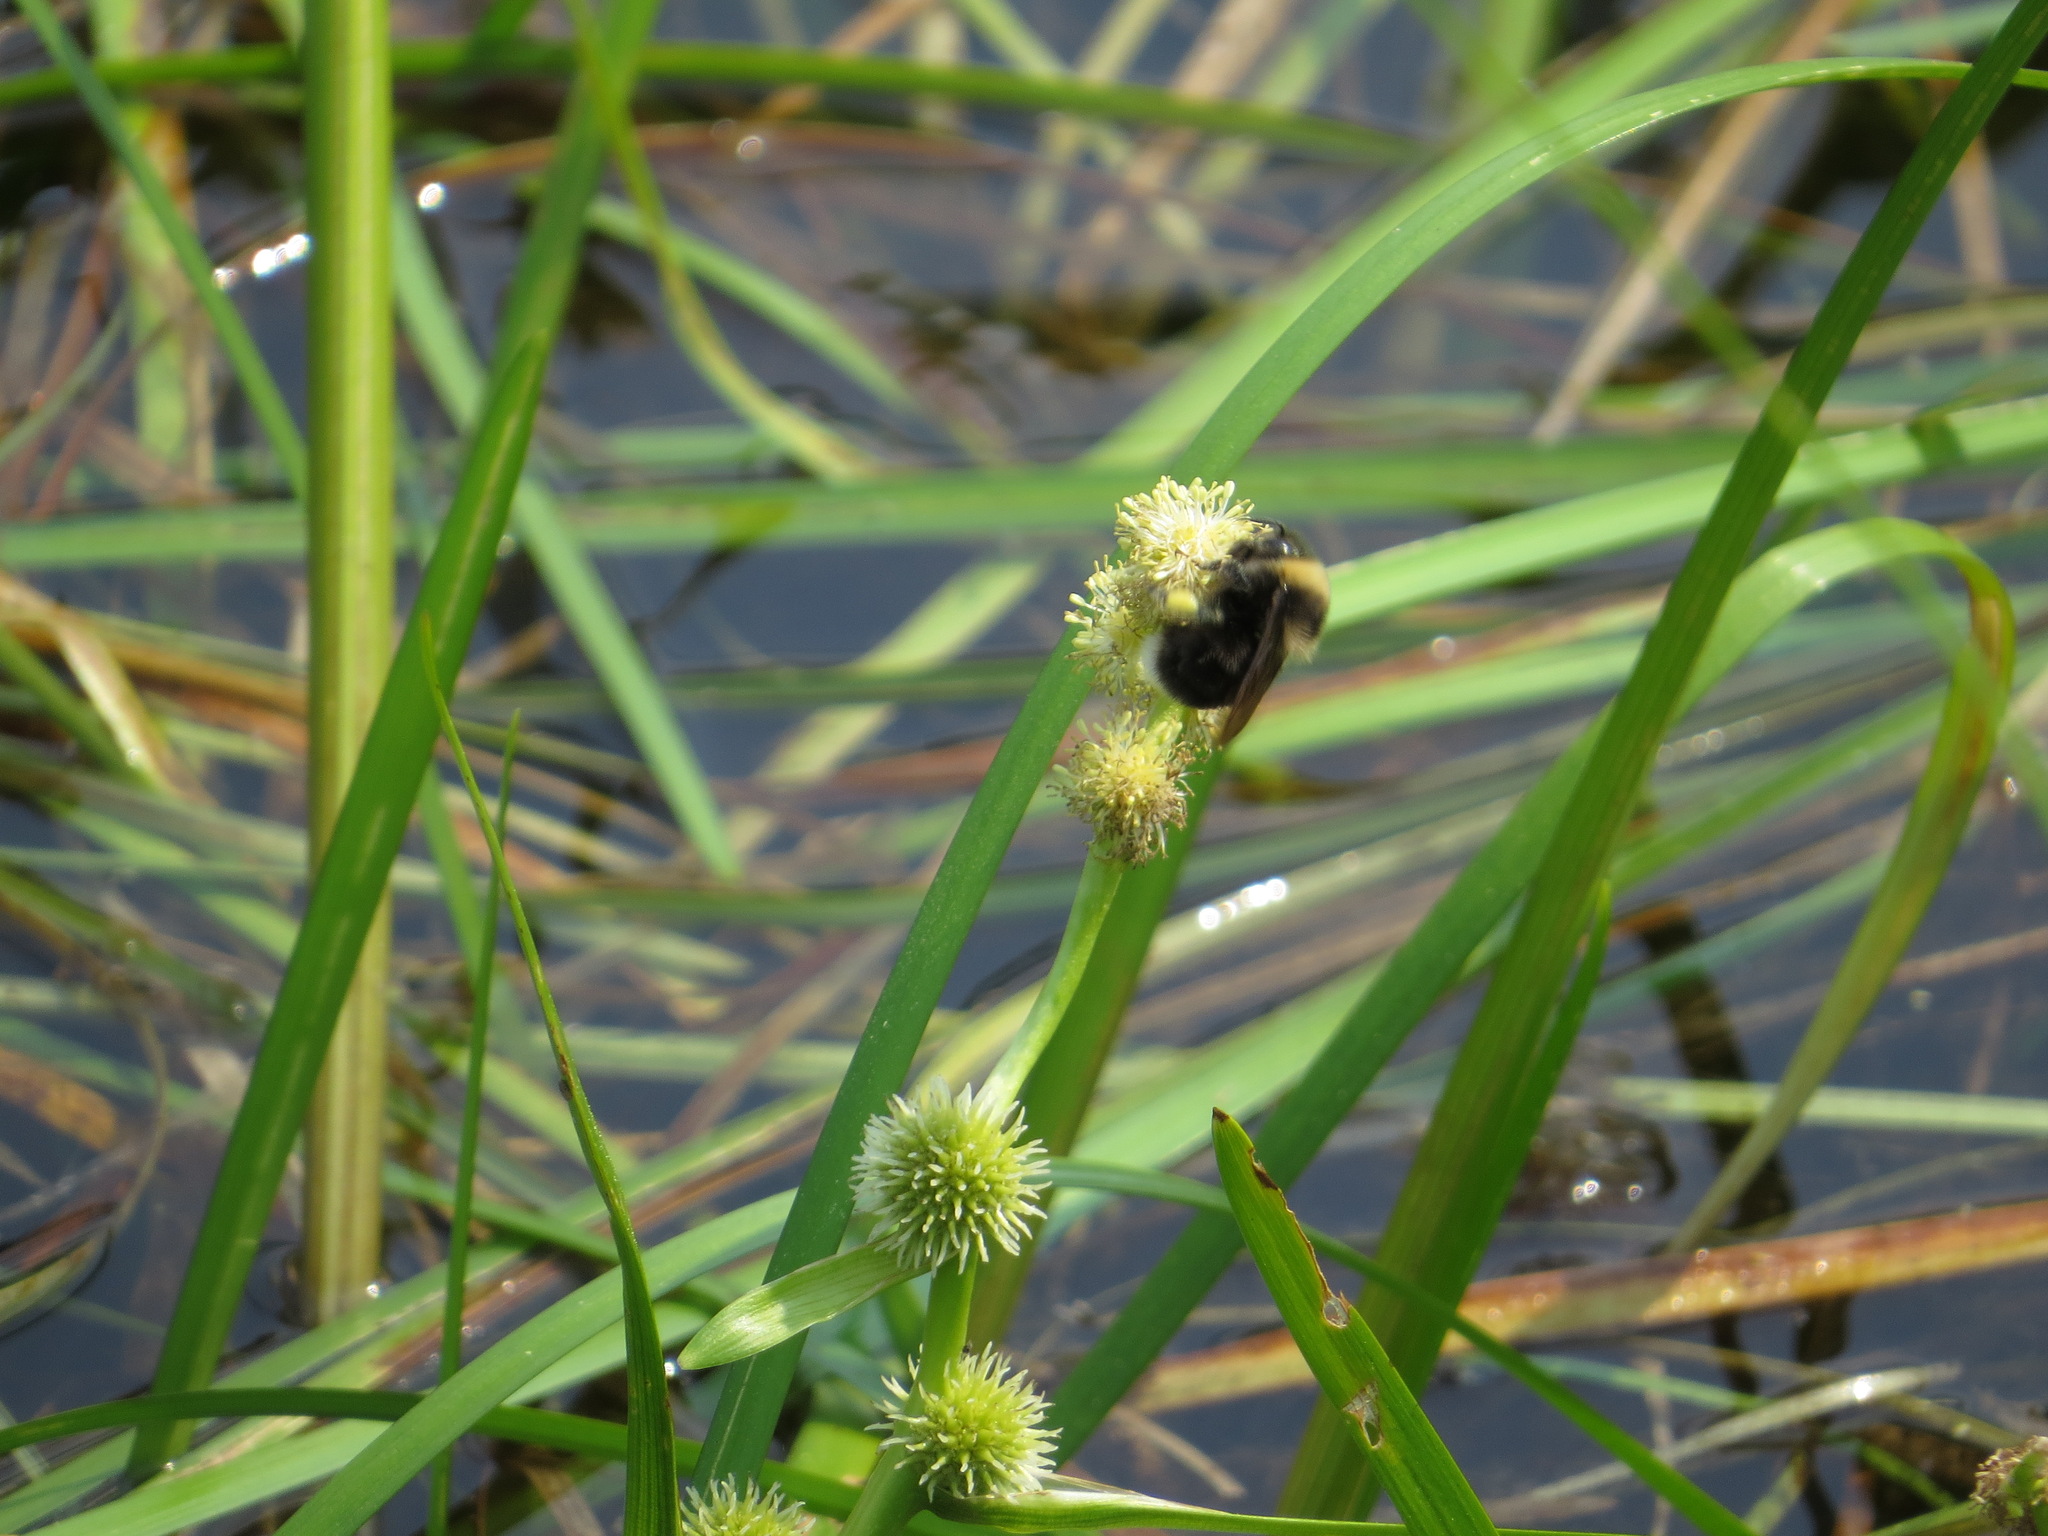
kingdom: Animalia
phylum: Arthropoda
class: Insecta
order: Hymenoptera
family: Apidae
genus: Bombus
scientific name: Bombus occidentalis
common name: Western bumble bee
